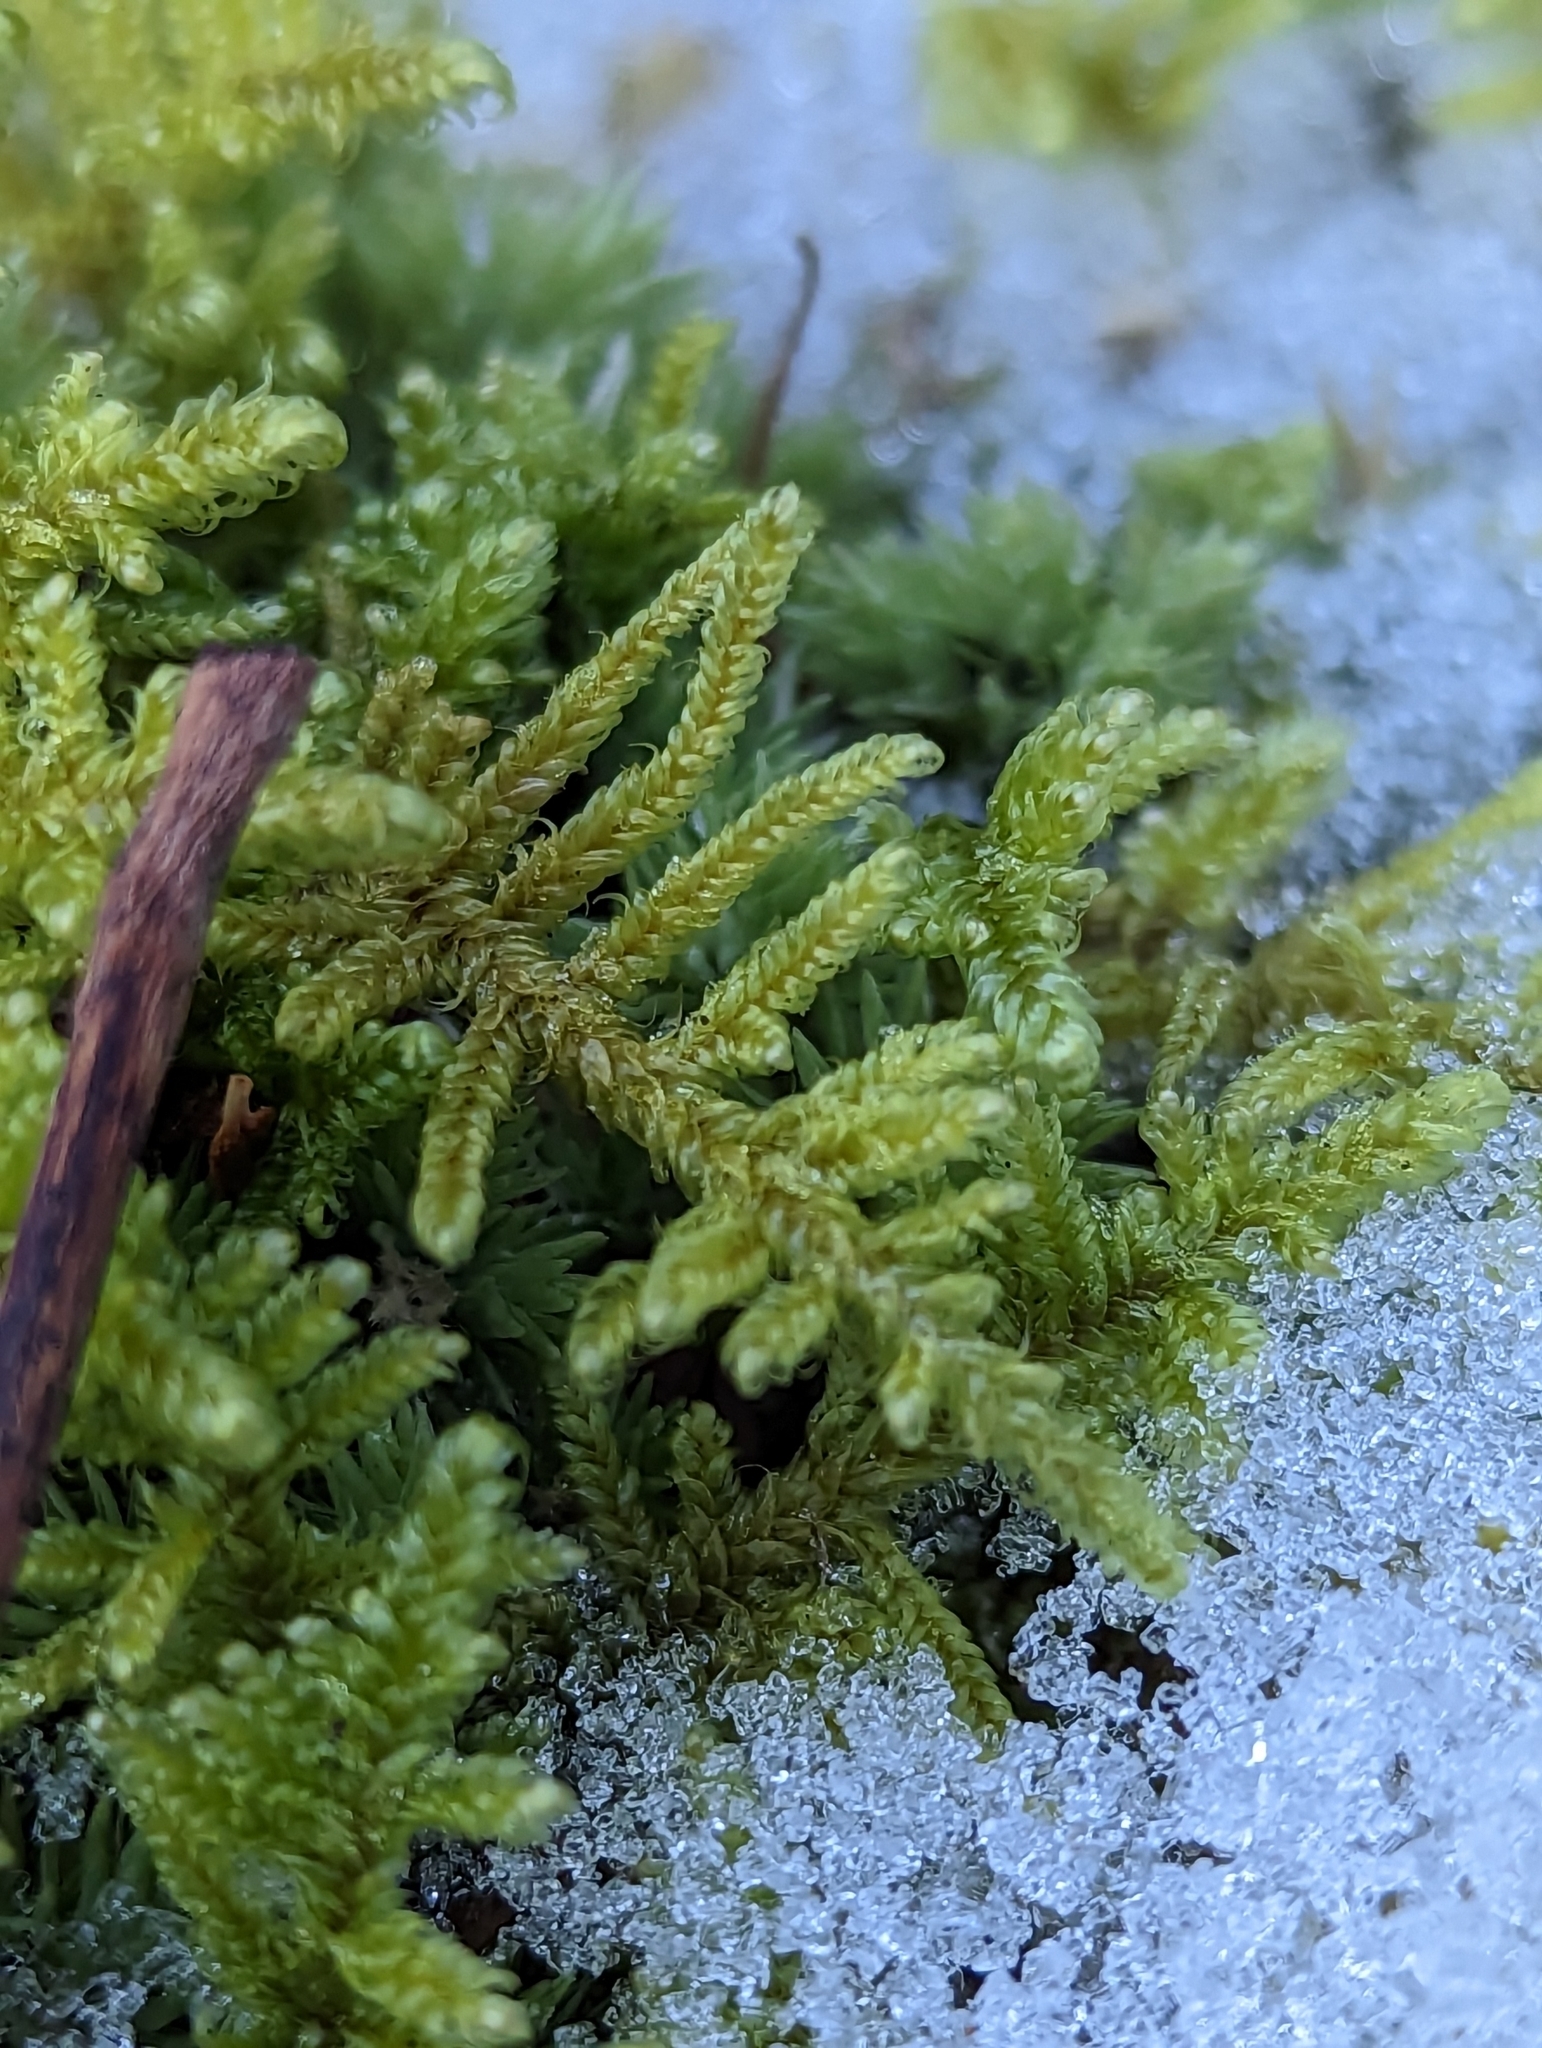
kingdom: Plantae
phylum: Bryophyta
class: Bryopsida
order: Hypnales
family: Callicladiaceae
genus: Callicladium
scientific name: Callicladium imponens
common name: Brocade moss
